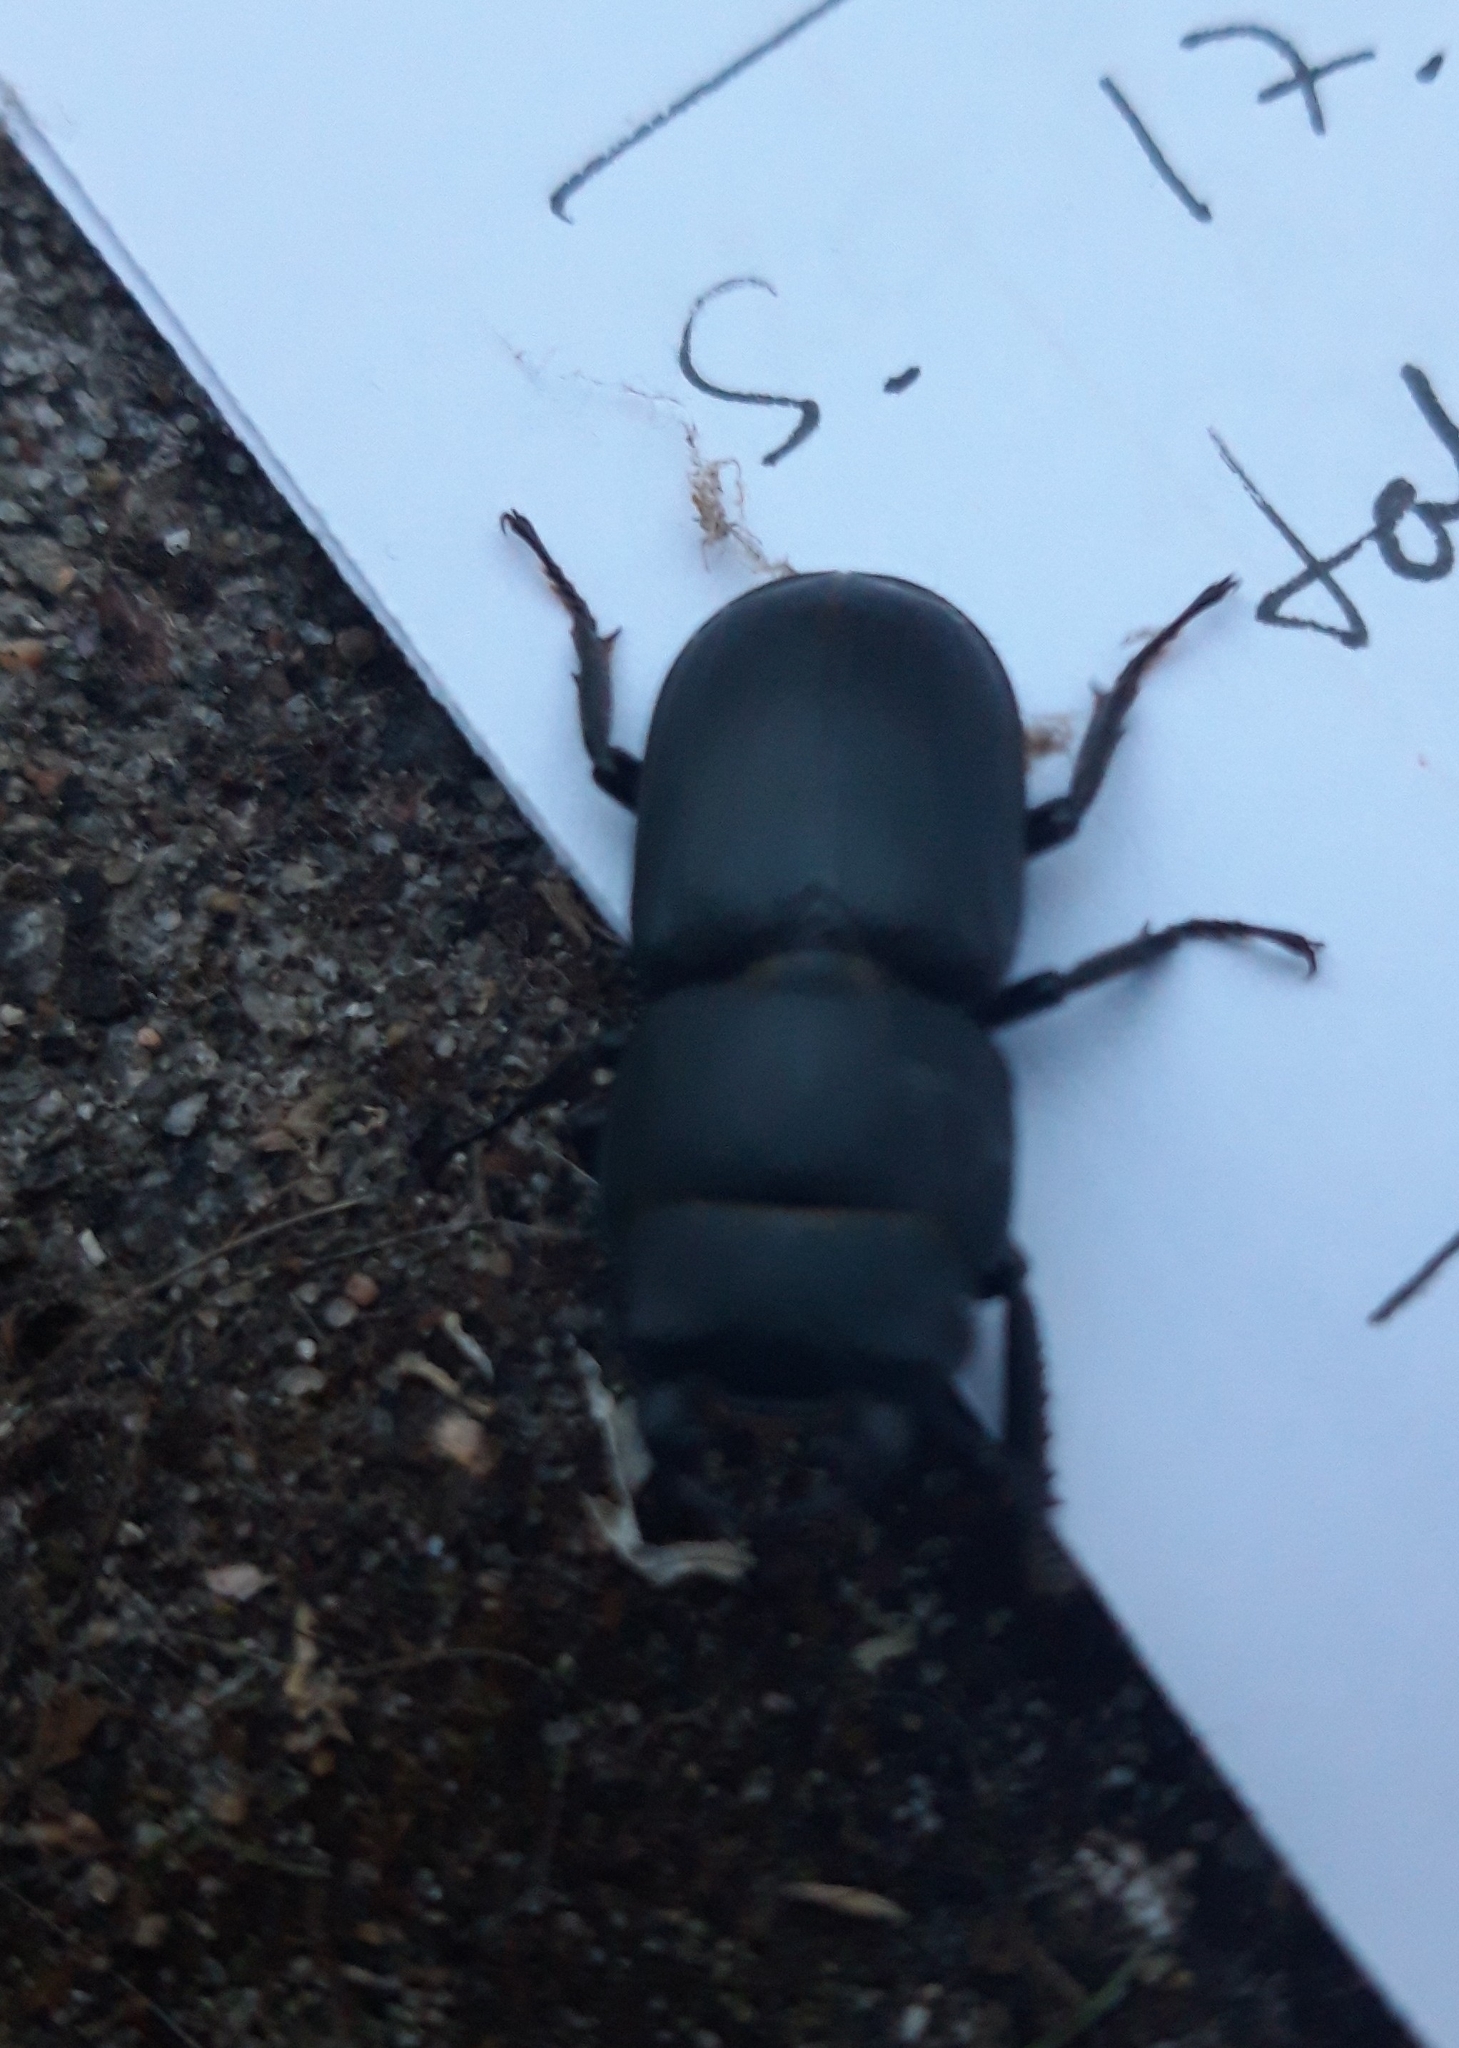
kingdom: Animalia
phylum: Arthropoda
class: Insecta
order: Coleoptera
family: Lucanidae
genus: Dorcus
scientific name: Dorcus parallelipipedus
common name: Lesser stag beetle
